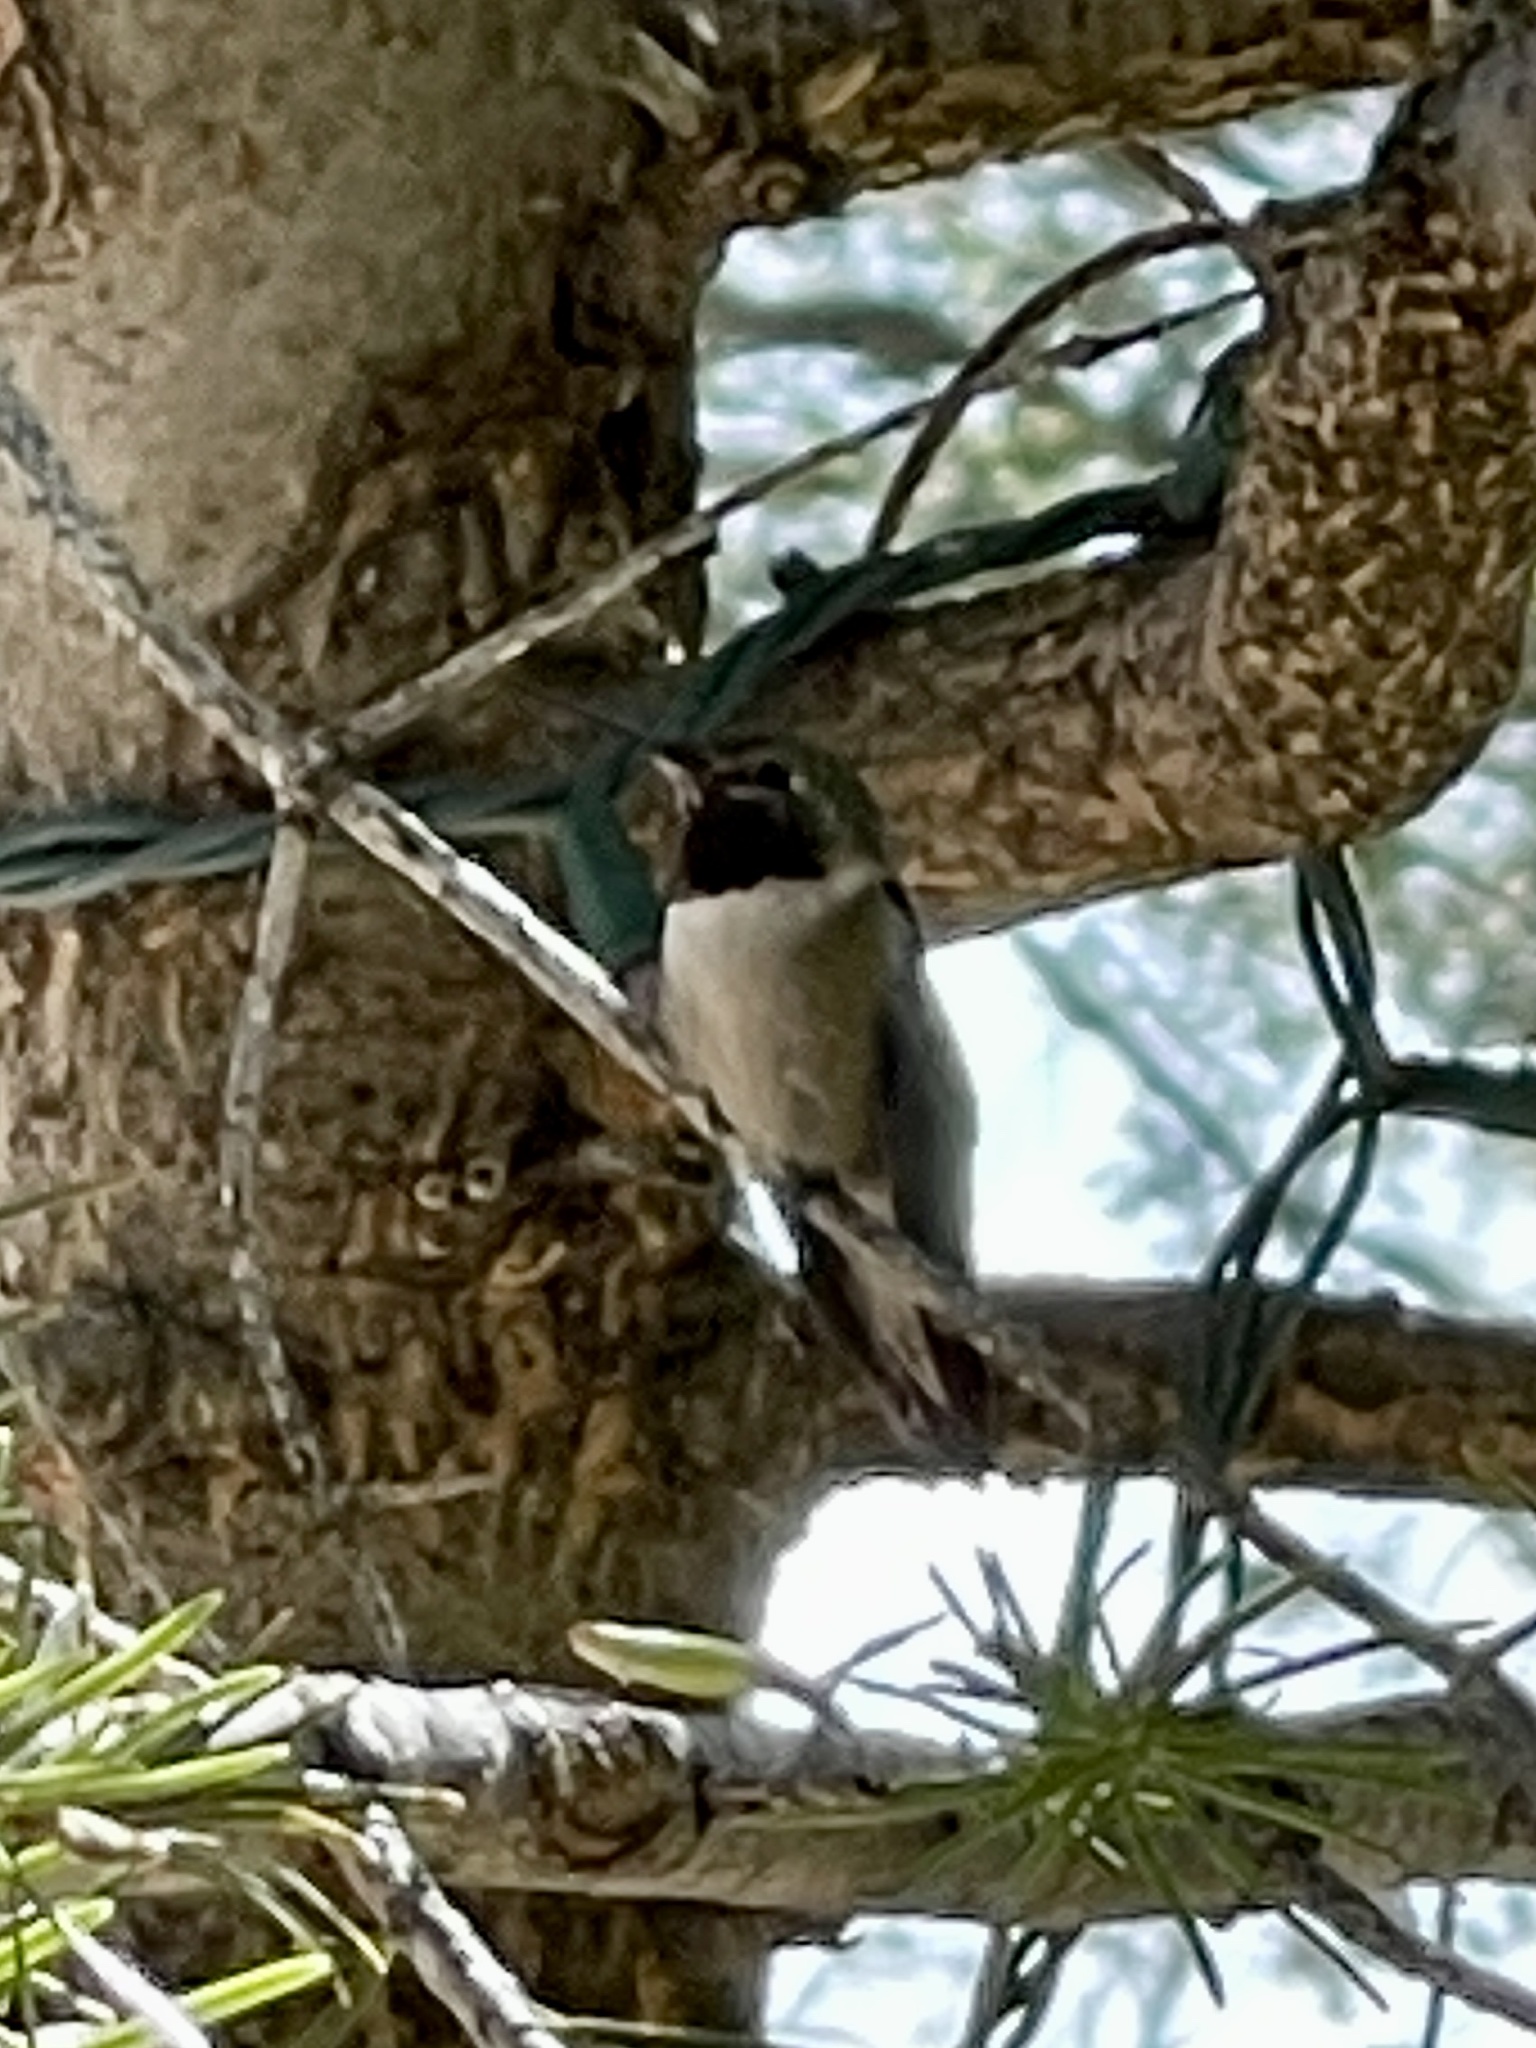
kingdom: Animalia
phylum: Chordata
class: Aves
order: Apodiformes
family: Trochilidae
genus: Selasphorus
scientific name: Selasphorus platycercus
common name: Broad-tailed hummingbird
